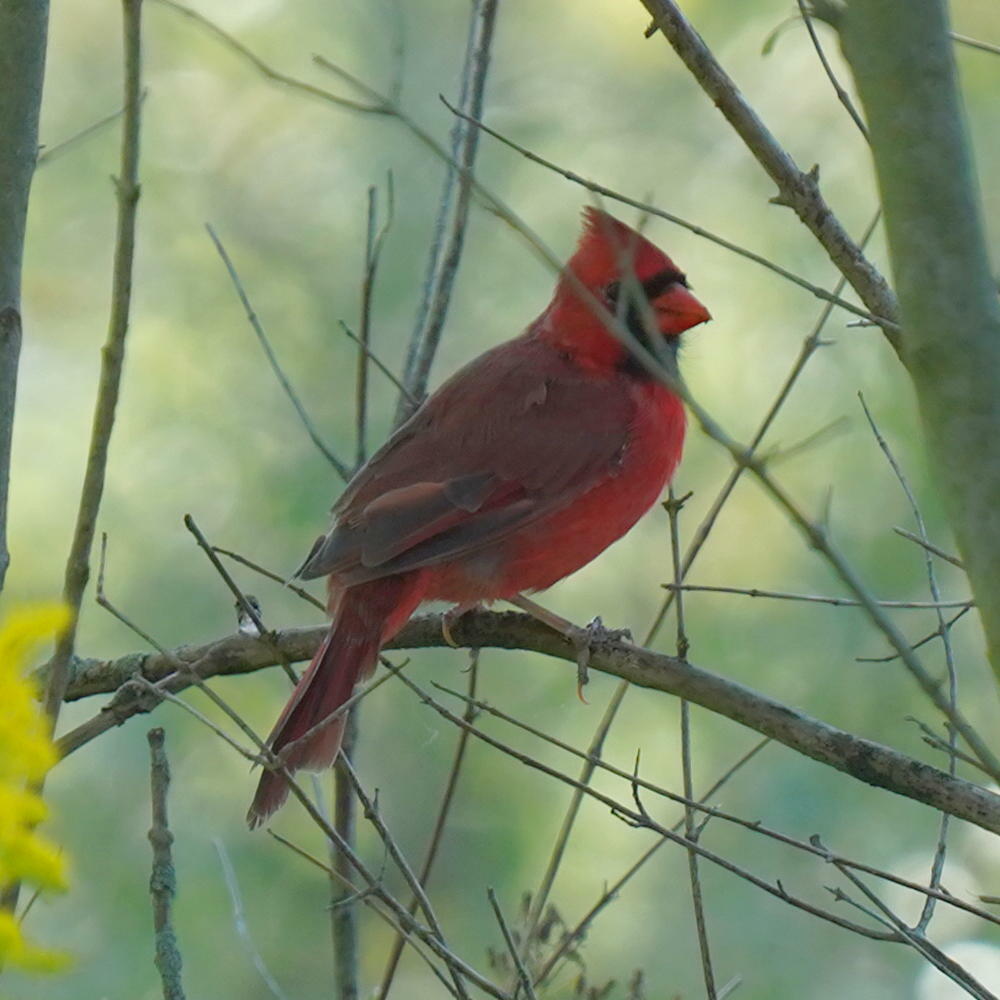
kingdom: Animalia
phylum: Chordata
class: Aves
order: Passeriformes
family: Cardinalidae
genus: Cardinalis
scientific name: Cardinalis cardinalis
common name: Northern cardinal
